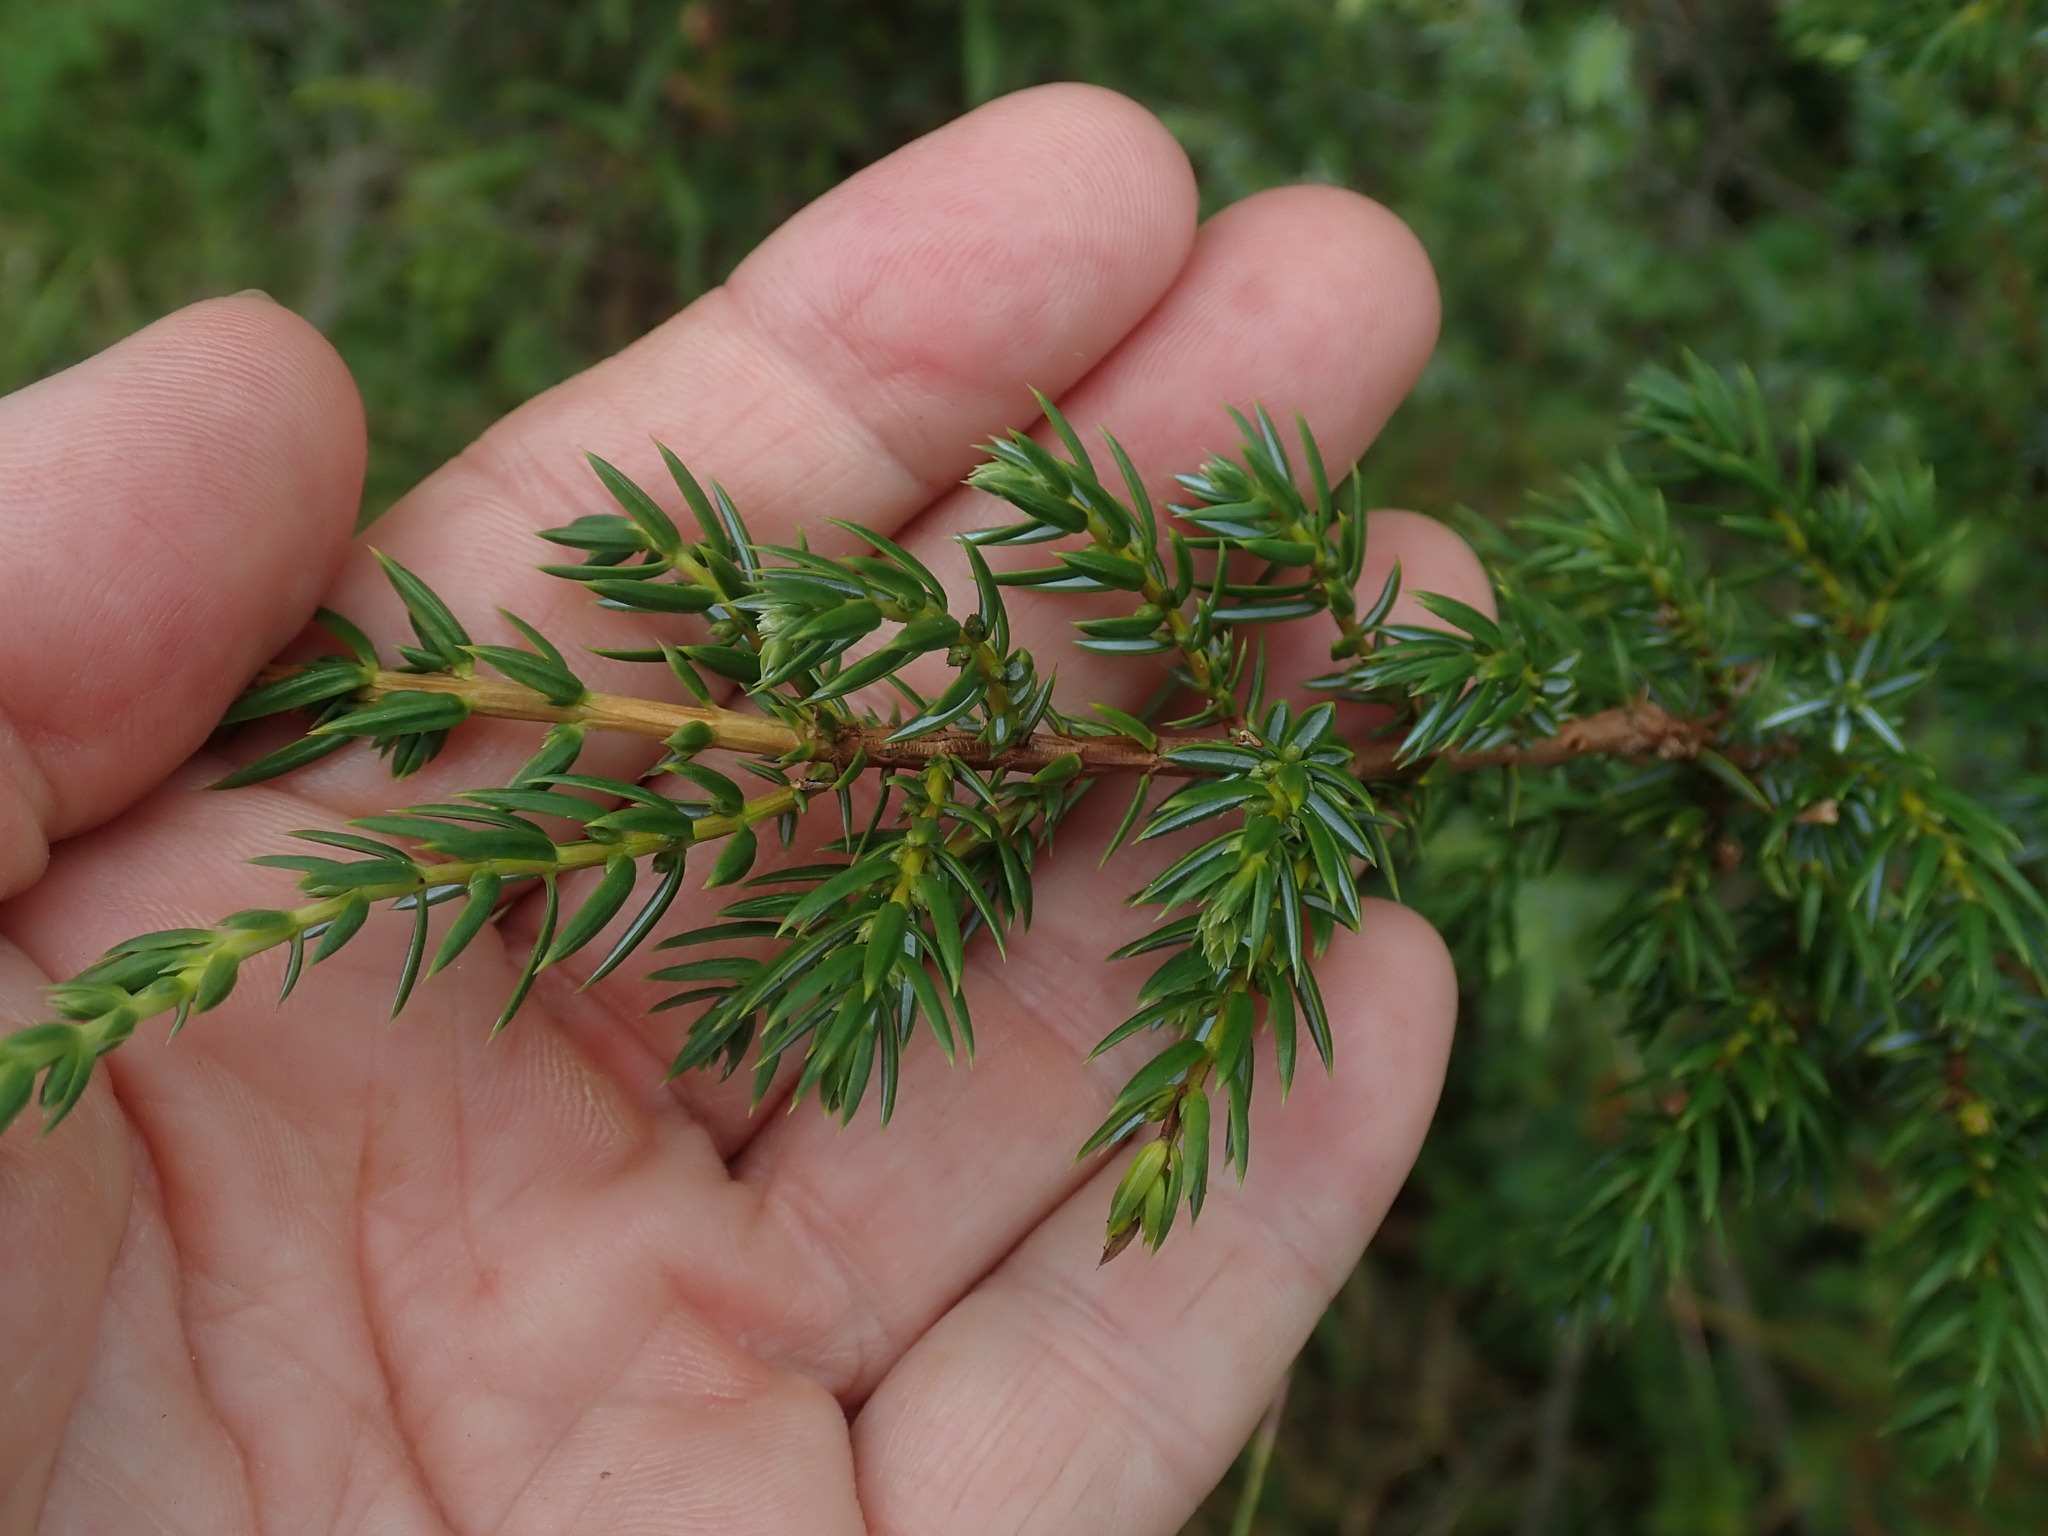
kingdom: Plantae
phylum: Tracheophyta
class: Pinopsida
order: Pinales
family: Cupressaceae
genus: Juniperus
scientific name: Juniperus communis
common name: Common juniper
